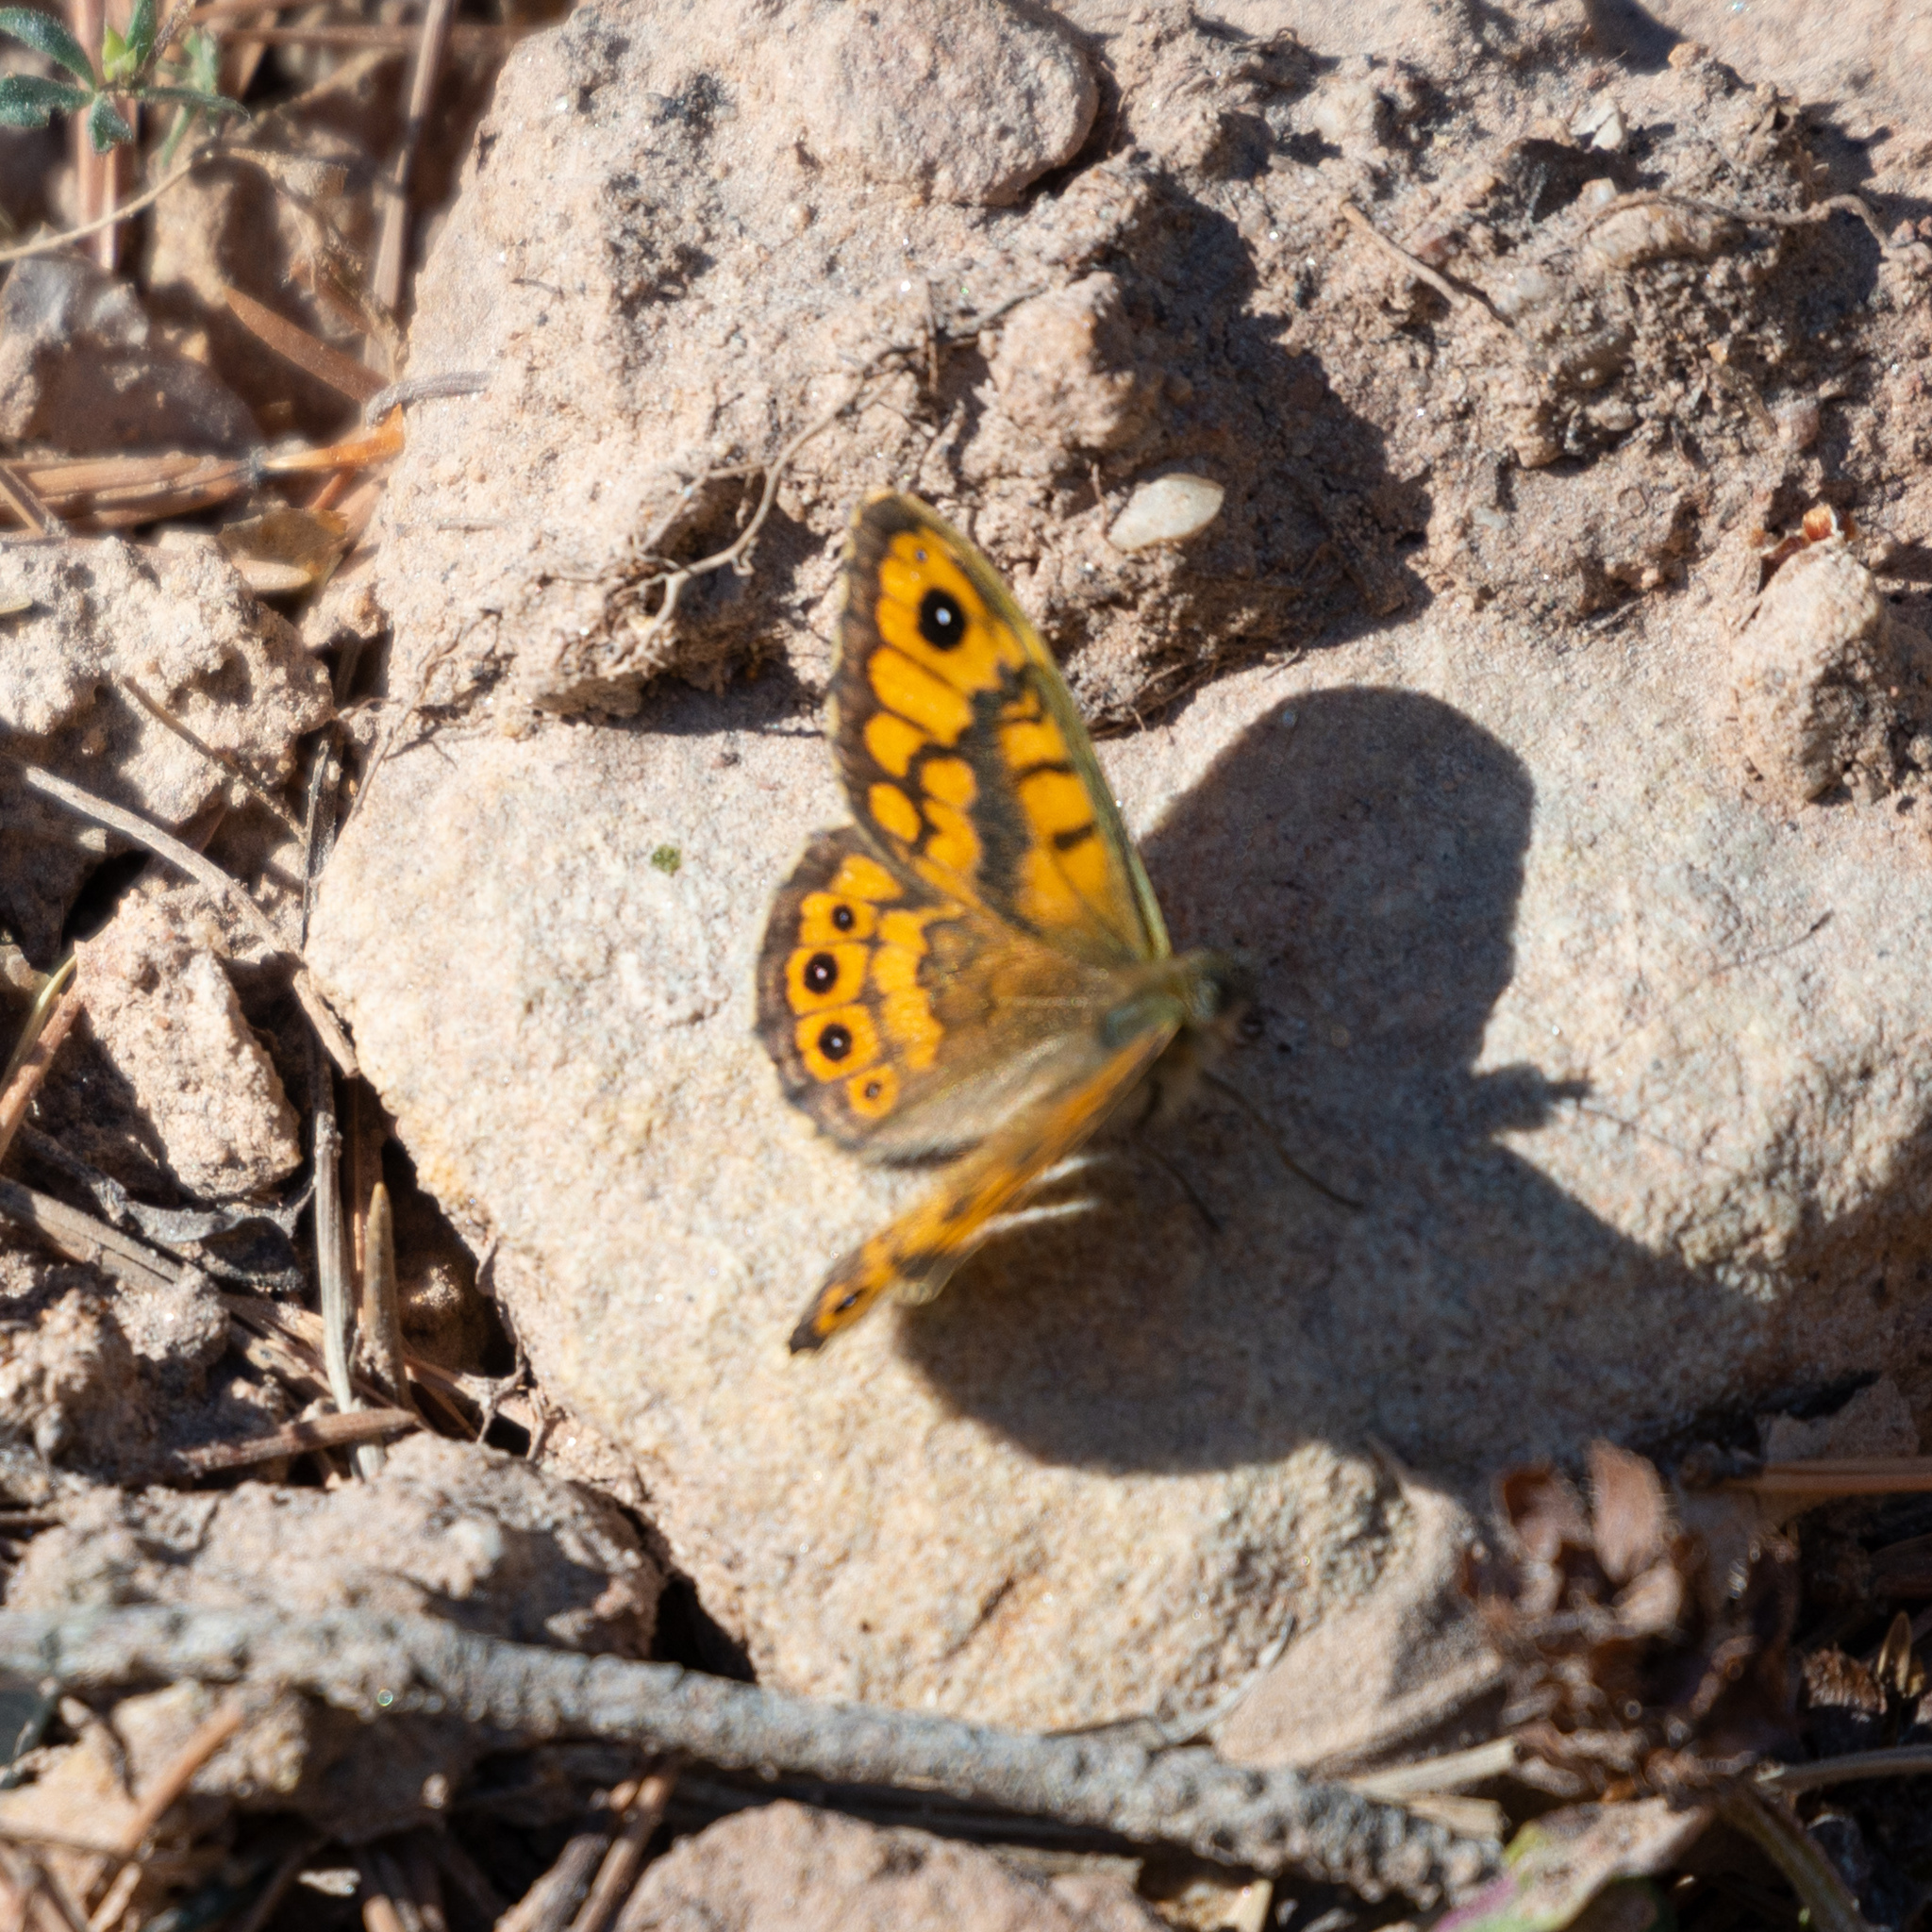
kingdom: Animalia
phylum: Arthropoda
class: Insecta
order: Lepidoptera
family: Nymphalidae
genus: Pararge
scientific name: Pararge Lasiommata megera
